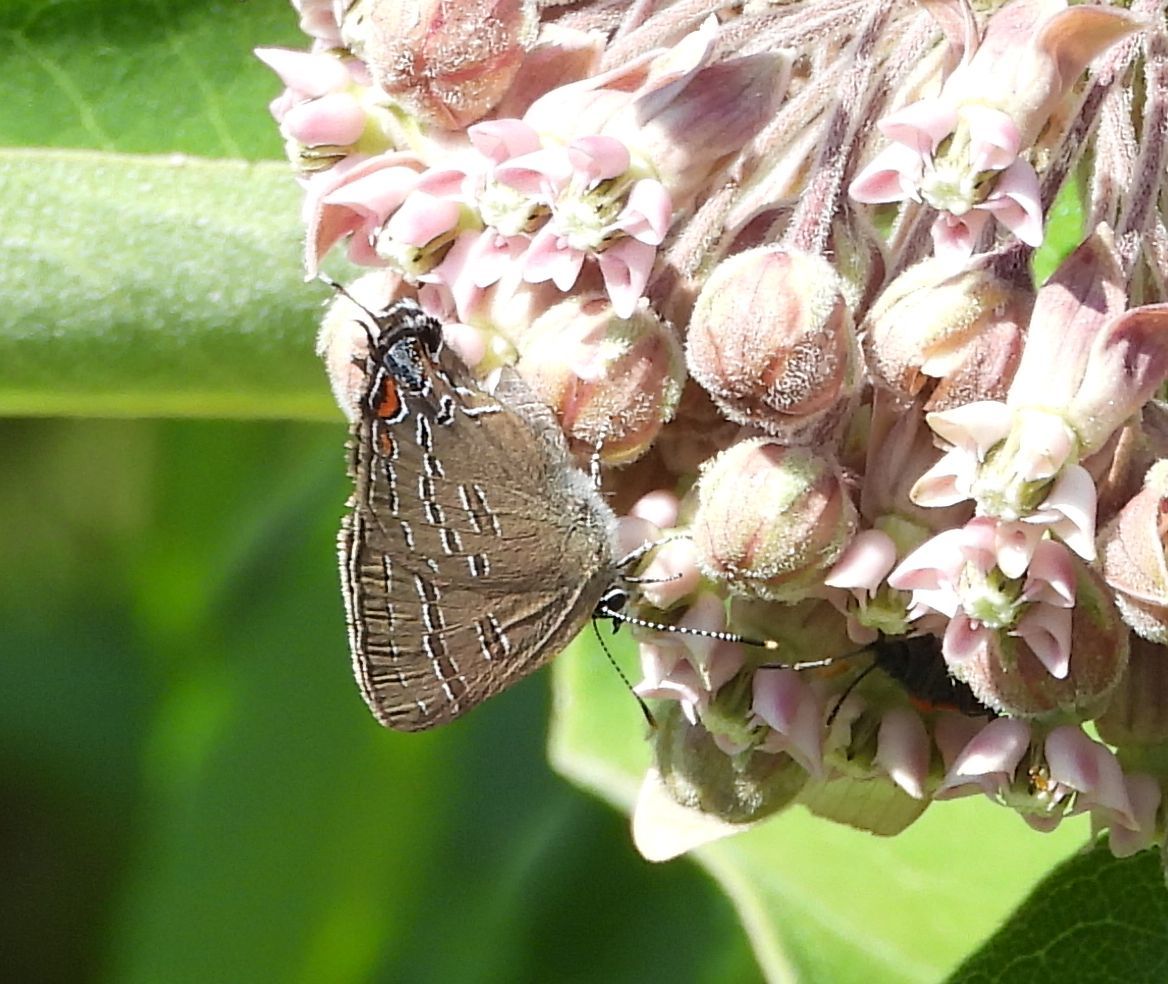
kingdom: Animalia
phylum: Arthropoda
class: Insecta
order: Lepidoptera
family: Lycaenidae
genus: Satyrium
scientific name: Satyrium calanus
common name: Banded hairstreak
